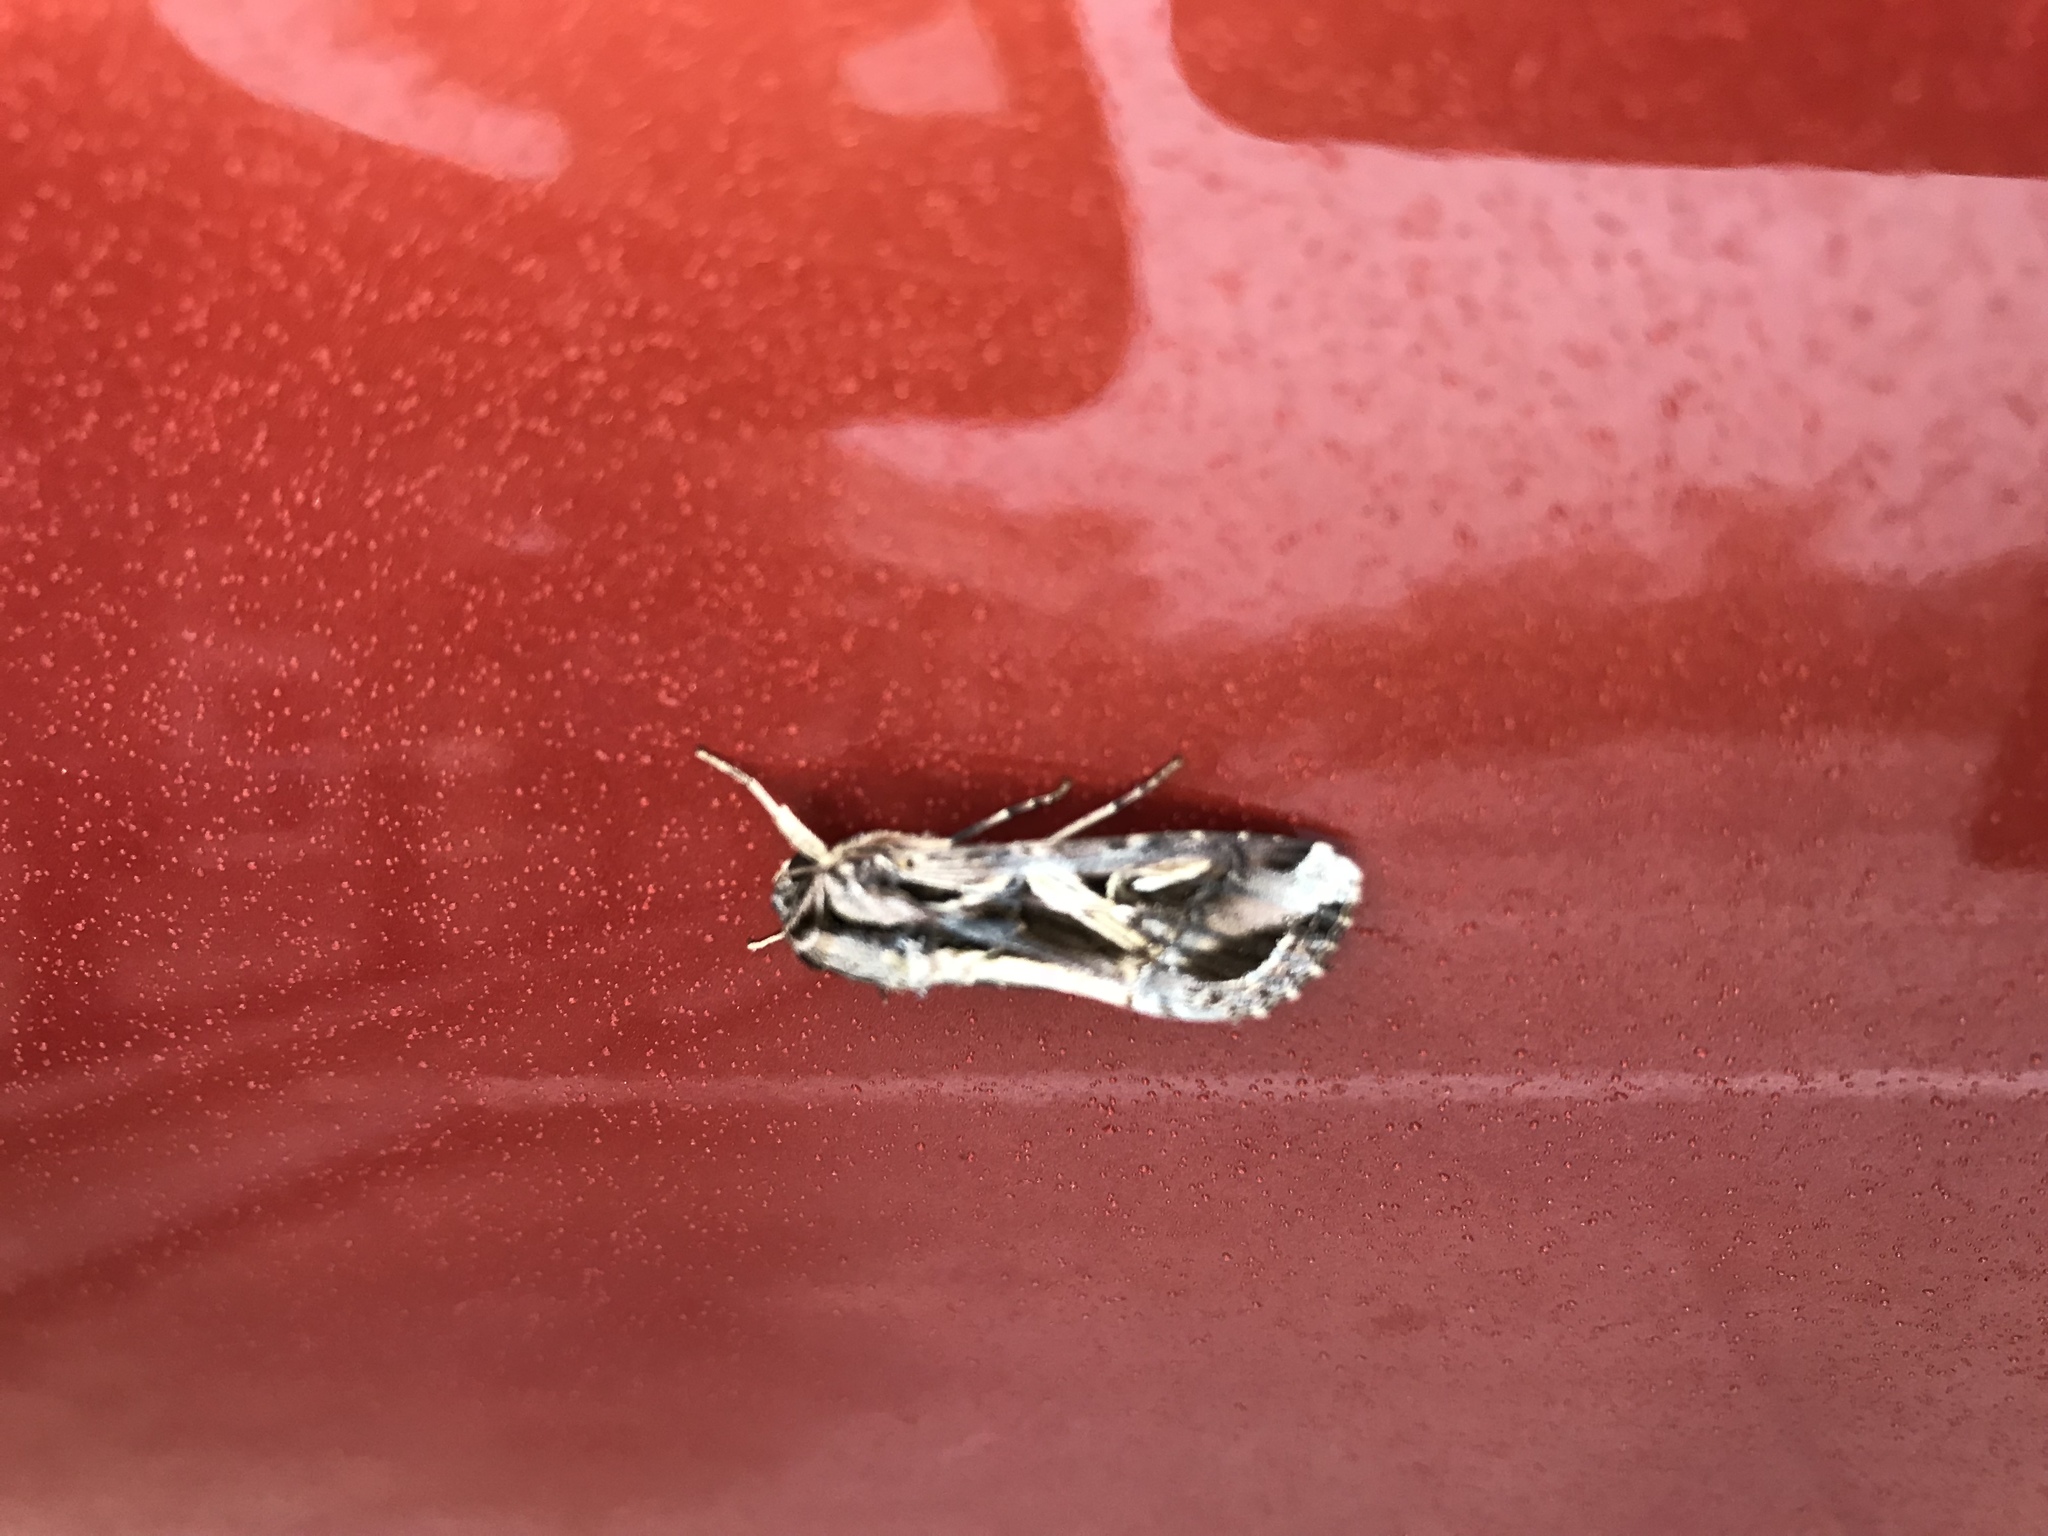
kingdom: Animalia
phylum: Arthropoda
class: Insecta
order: Lepidoptera
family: Noctuidae
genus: Spodoptera
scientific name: Spodoptera latifascia
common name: Velvet armyworm moth
